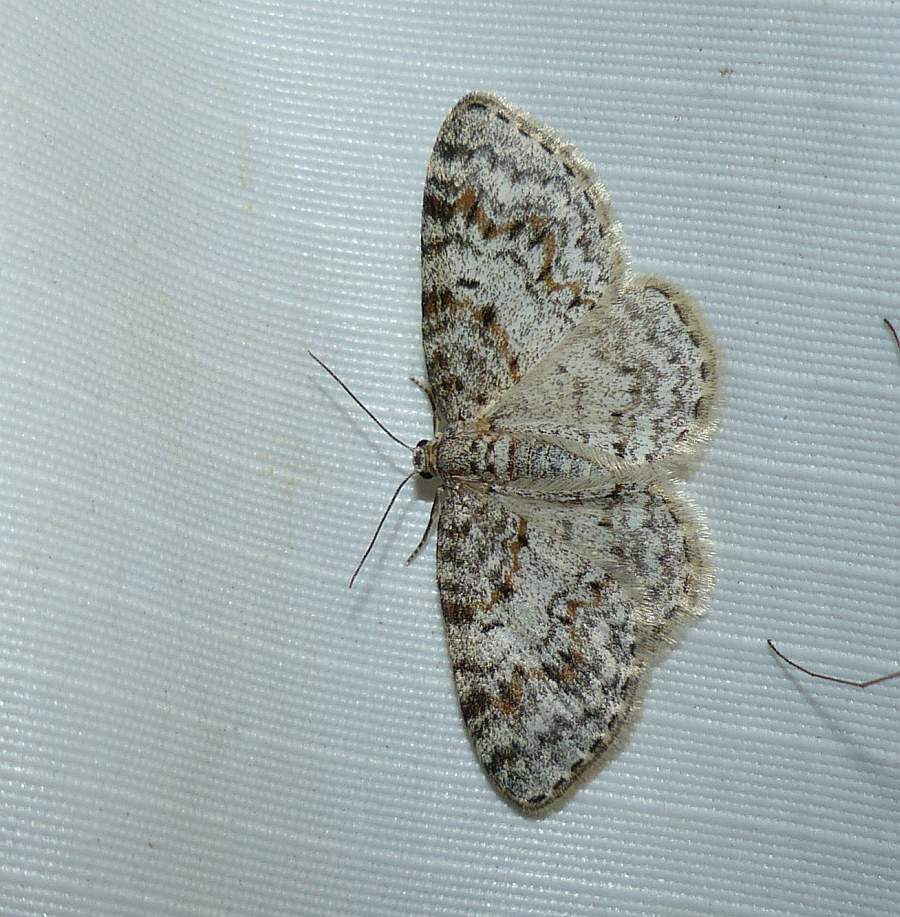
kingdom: Animalia
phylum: Arthropoda
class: Insecta
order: Lepidoptera
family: Geometridae
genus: Hydrelia
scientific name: Hydrelia inornata
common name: Unadorned carpet moth
